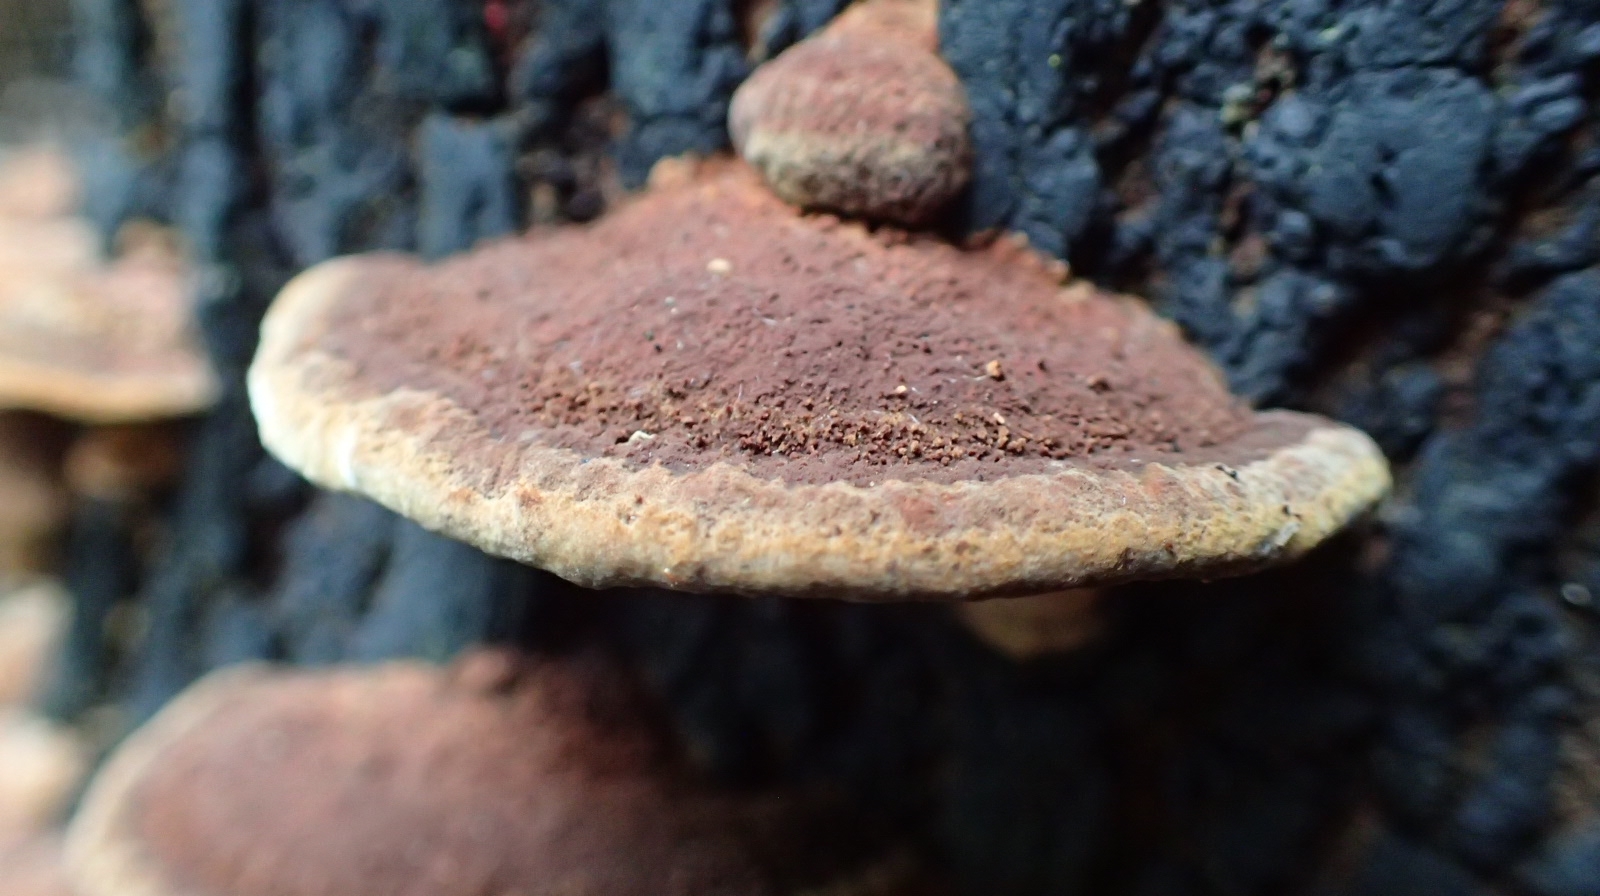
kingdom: Fungi
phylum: Basidiomycota
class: Agaricomycetes
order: Hymenochaetales
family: Hymenochaetaceae
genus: Phellinus
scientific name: Phellinus gilvus
